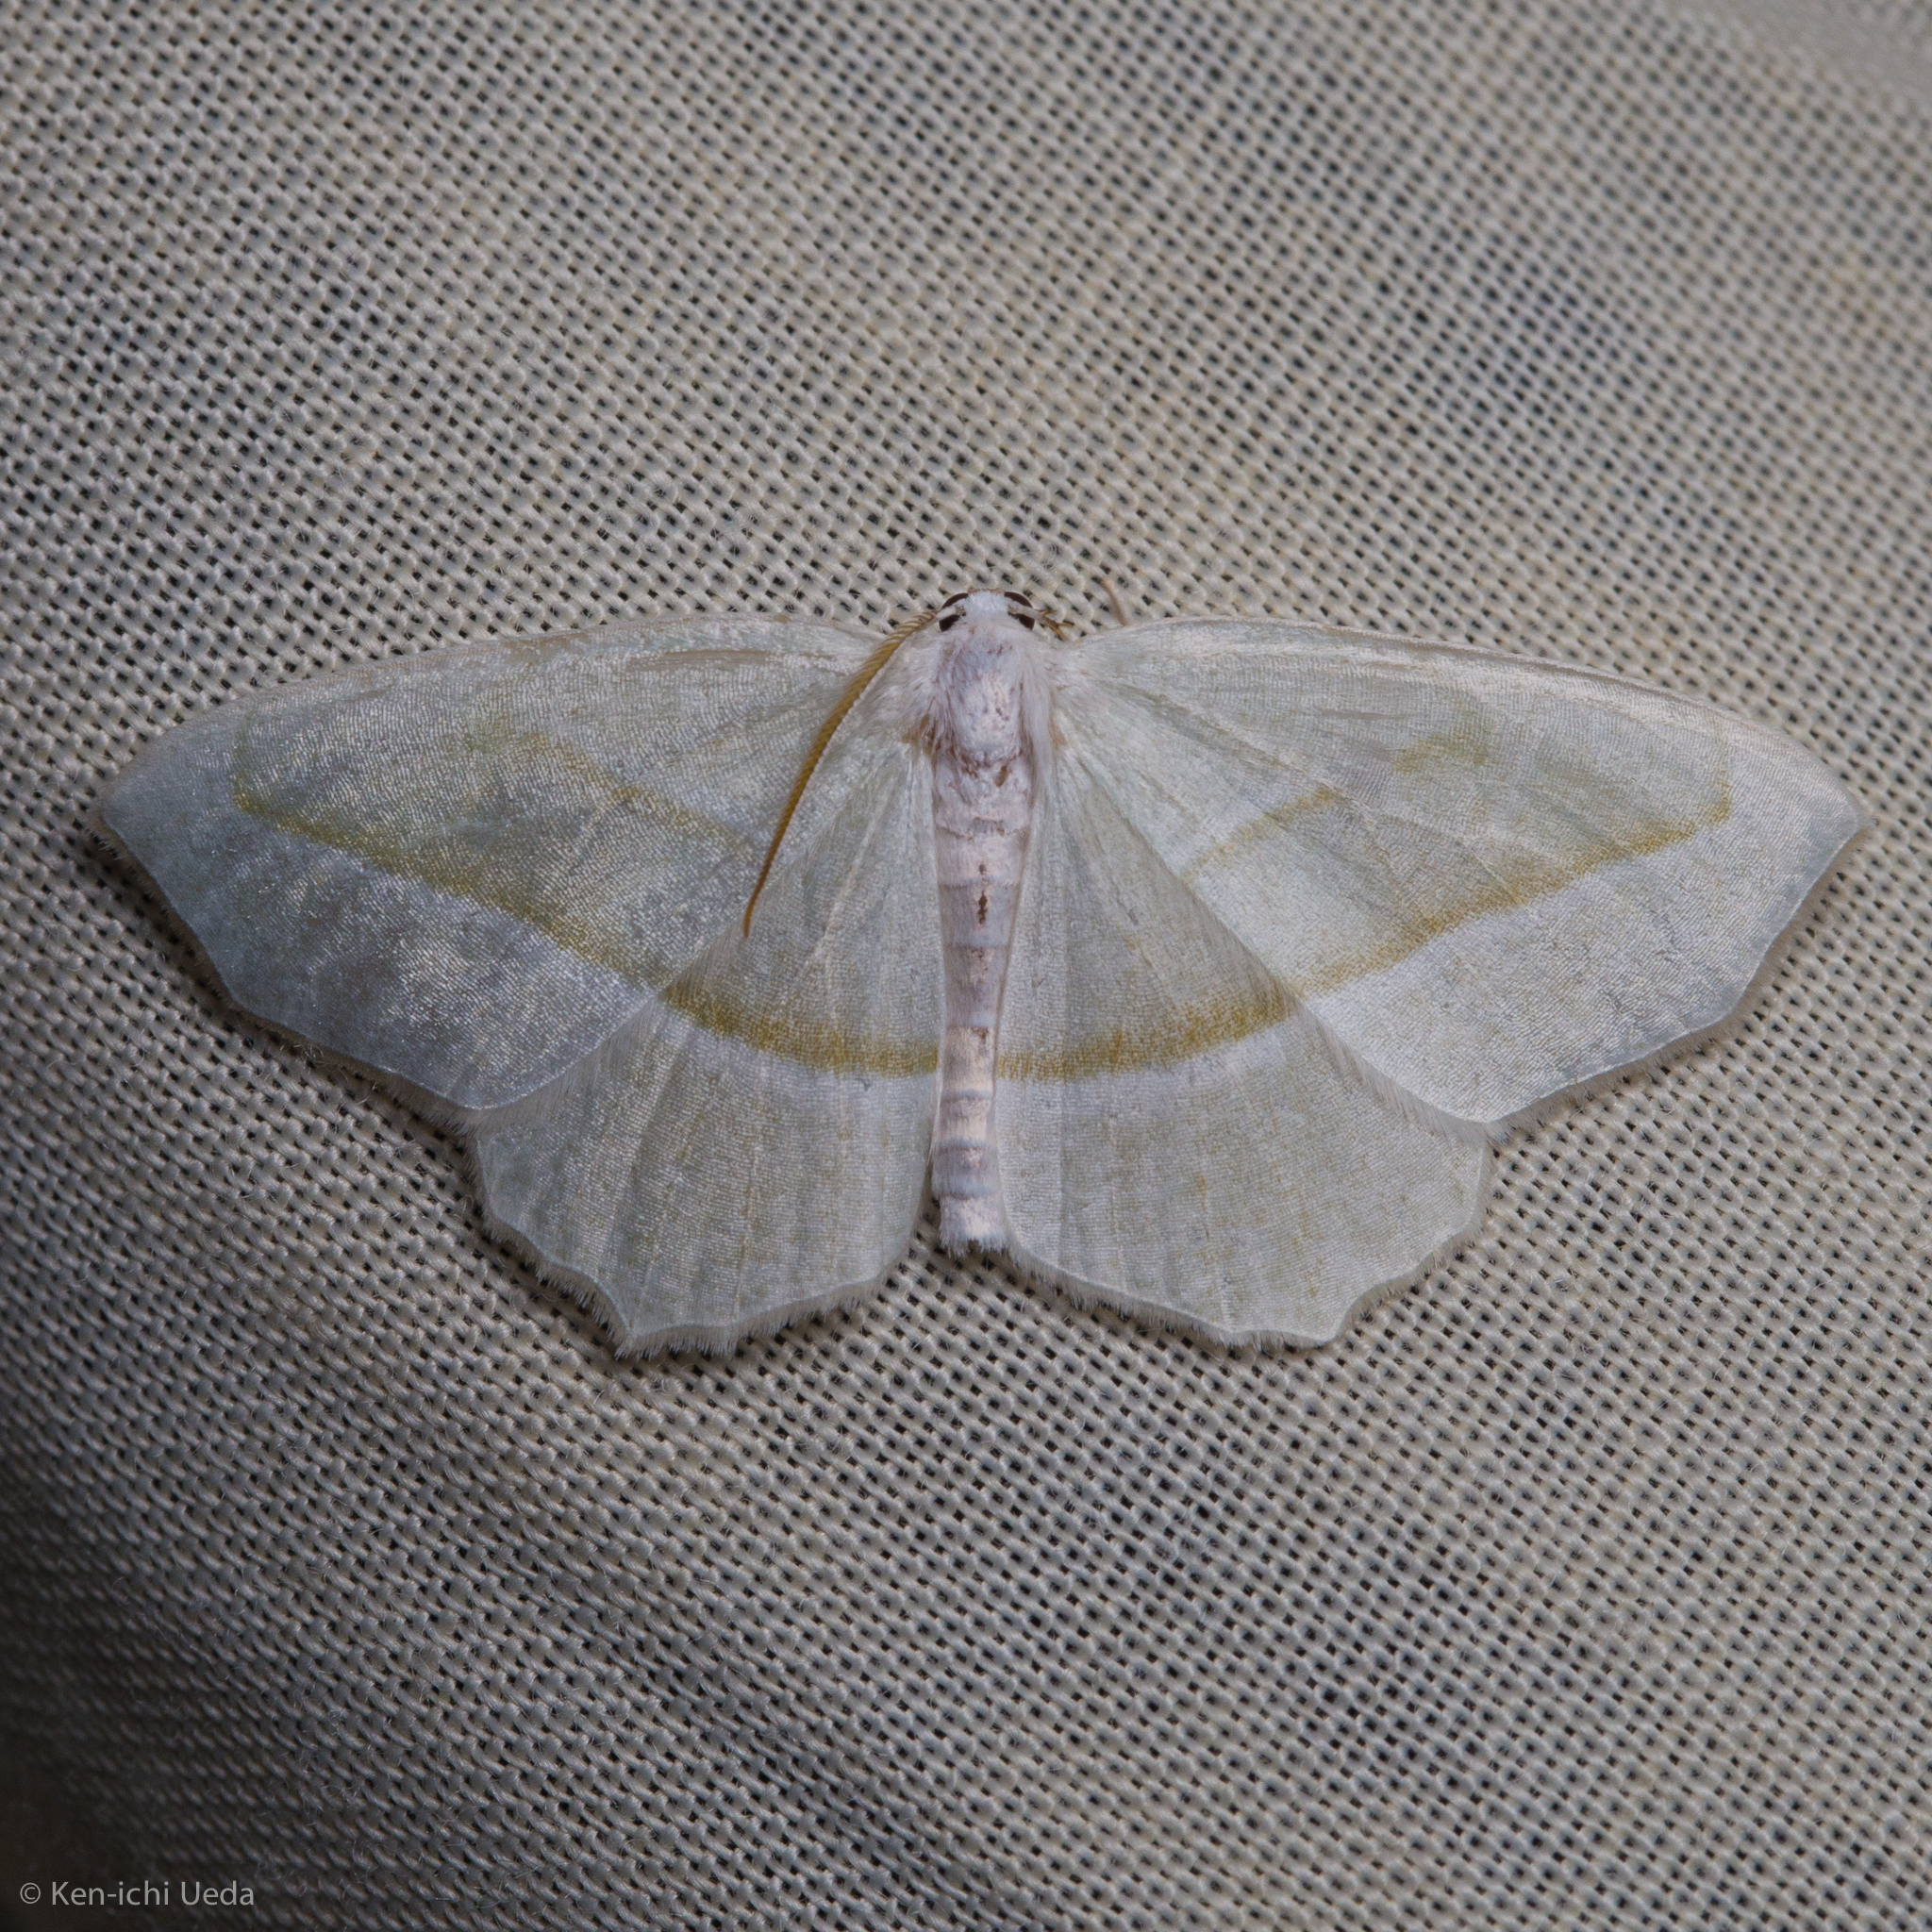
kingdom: Animalia
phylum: Arthropoda
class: Insecta
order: Lepidoptera
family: Geometridae
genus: Campaea
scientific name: Campaea perlata
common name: Fringed looper
